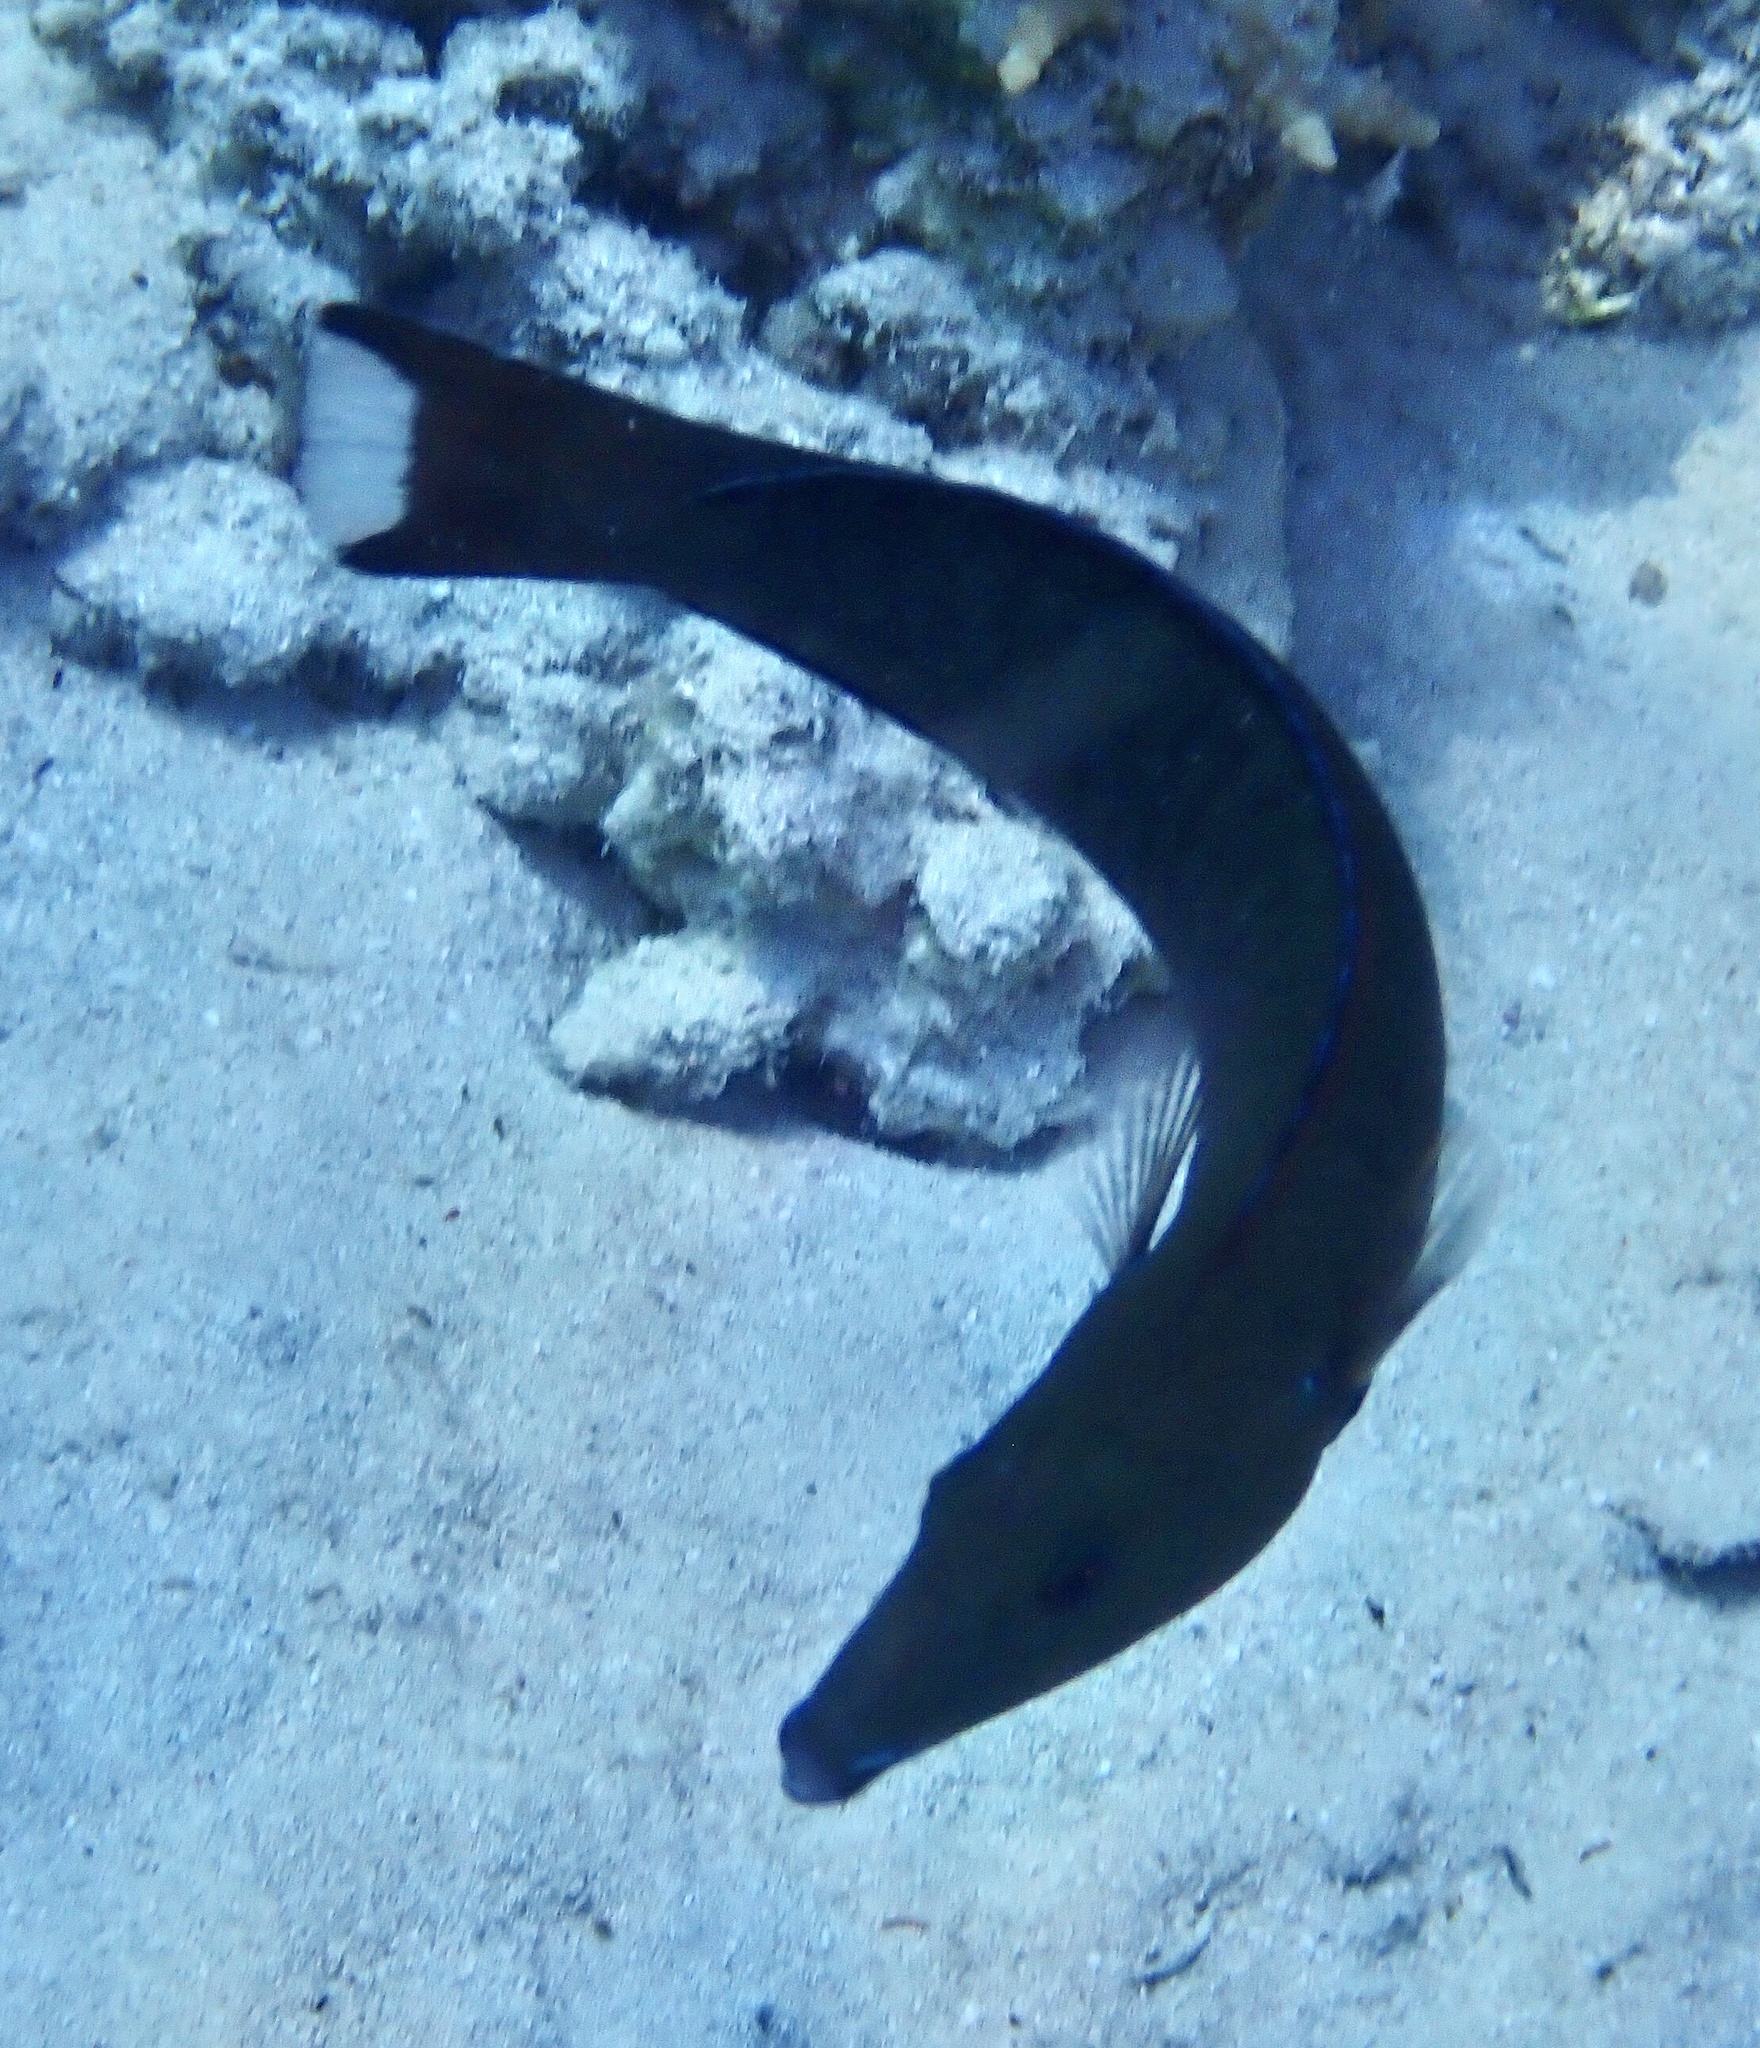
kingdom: Animalia
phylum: Chordata
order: Perciformes
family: Labridae
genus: Hologymnosus
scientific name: Hologymnosus annulatus
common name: Ring wrasse
